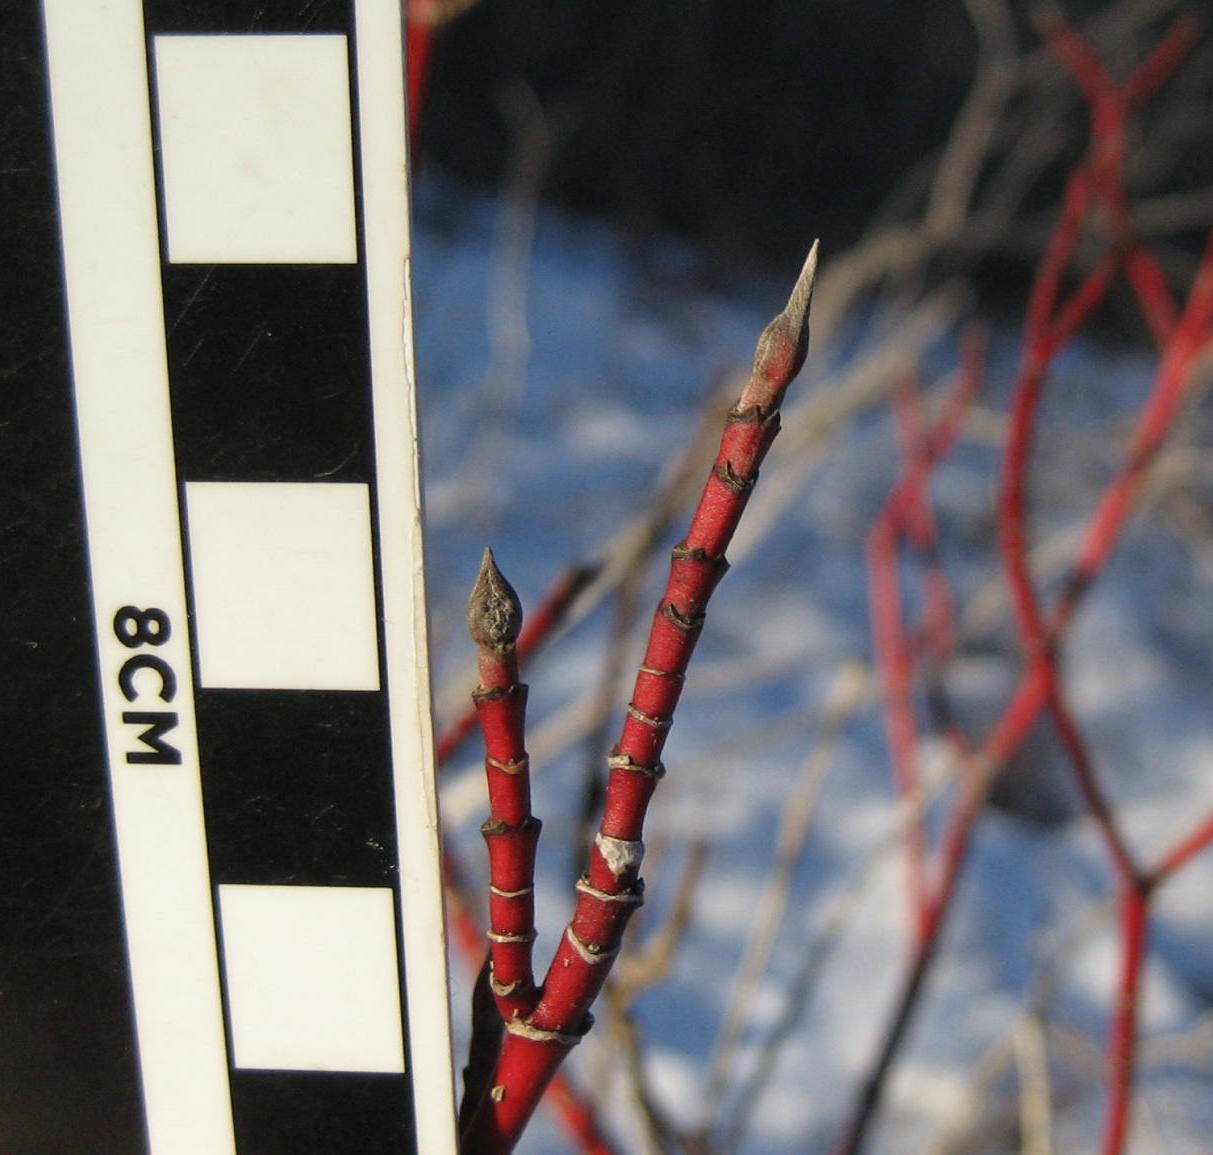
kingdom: Plantae
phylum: Tracheophyta
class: Magnoliopsida
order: Cornales
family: Cornaceae
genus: Cornus
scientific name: Cornus sericea
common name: Red-osier dogwood
